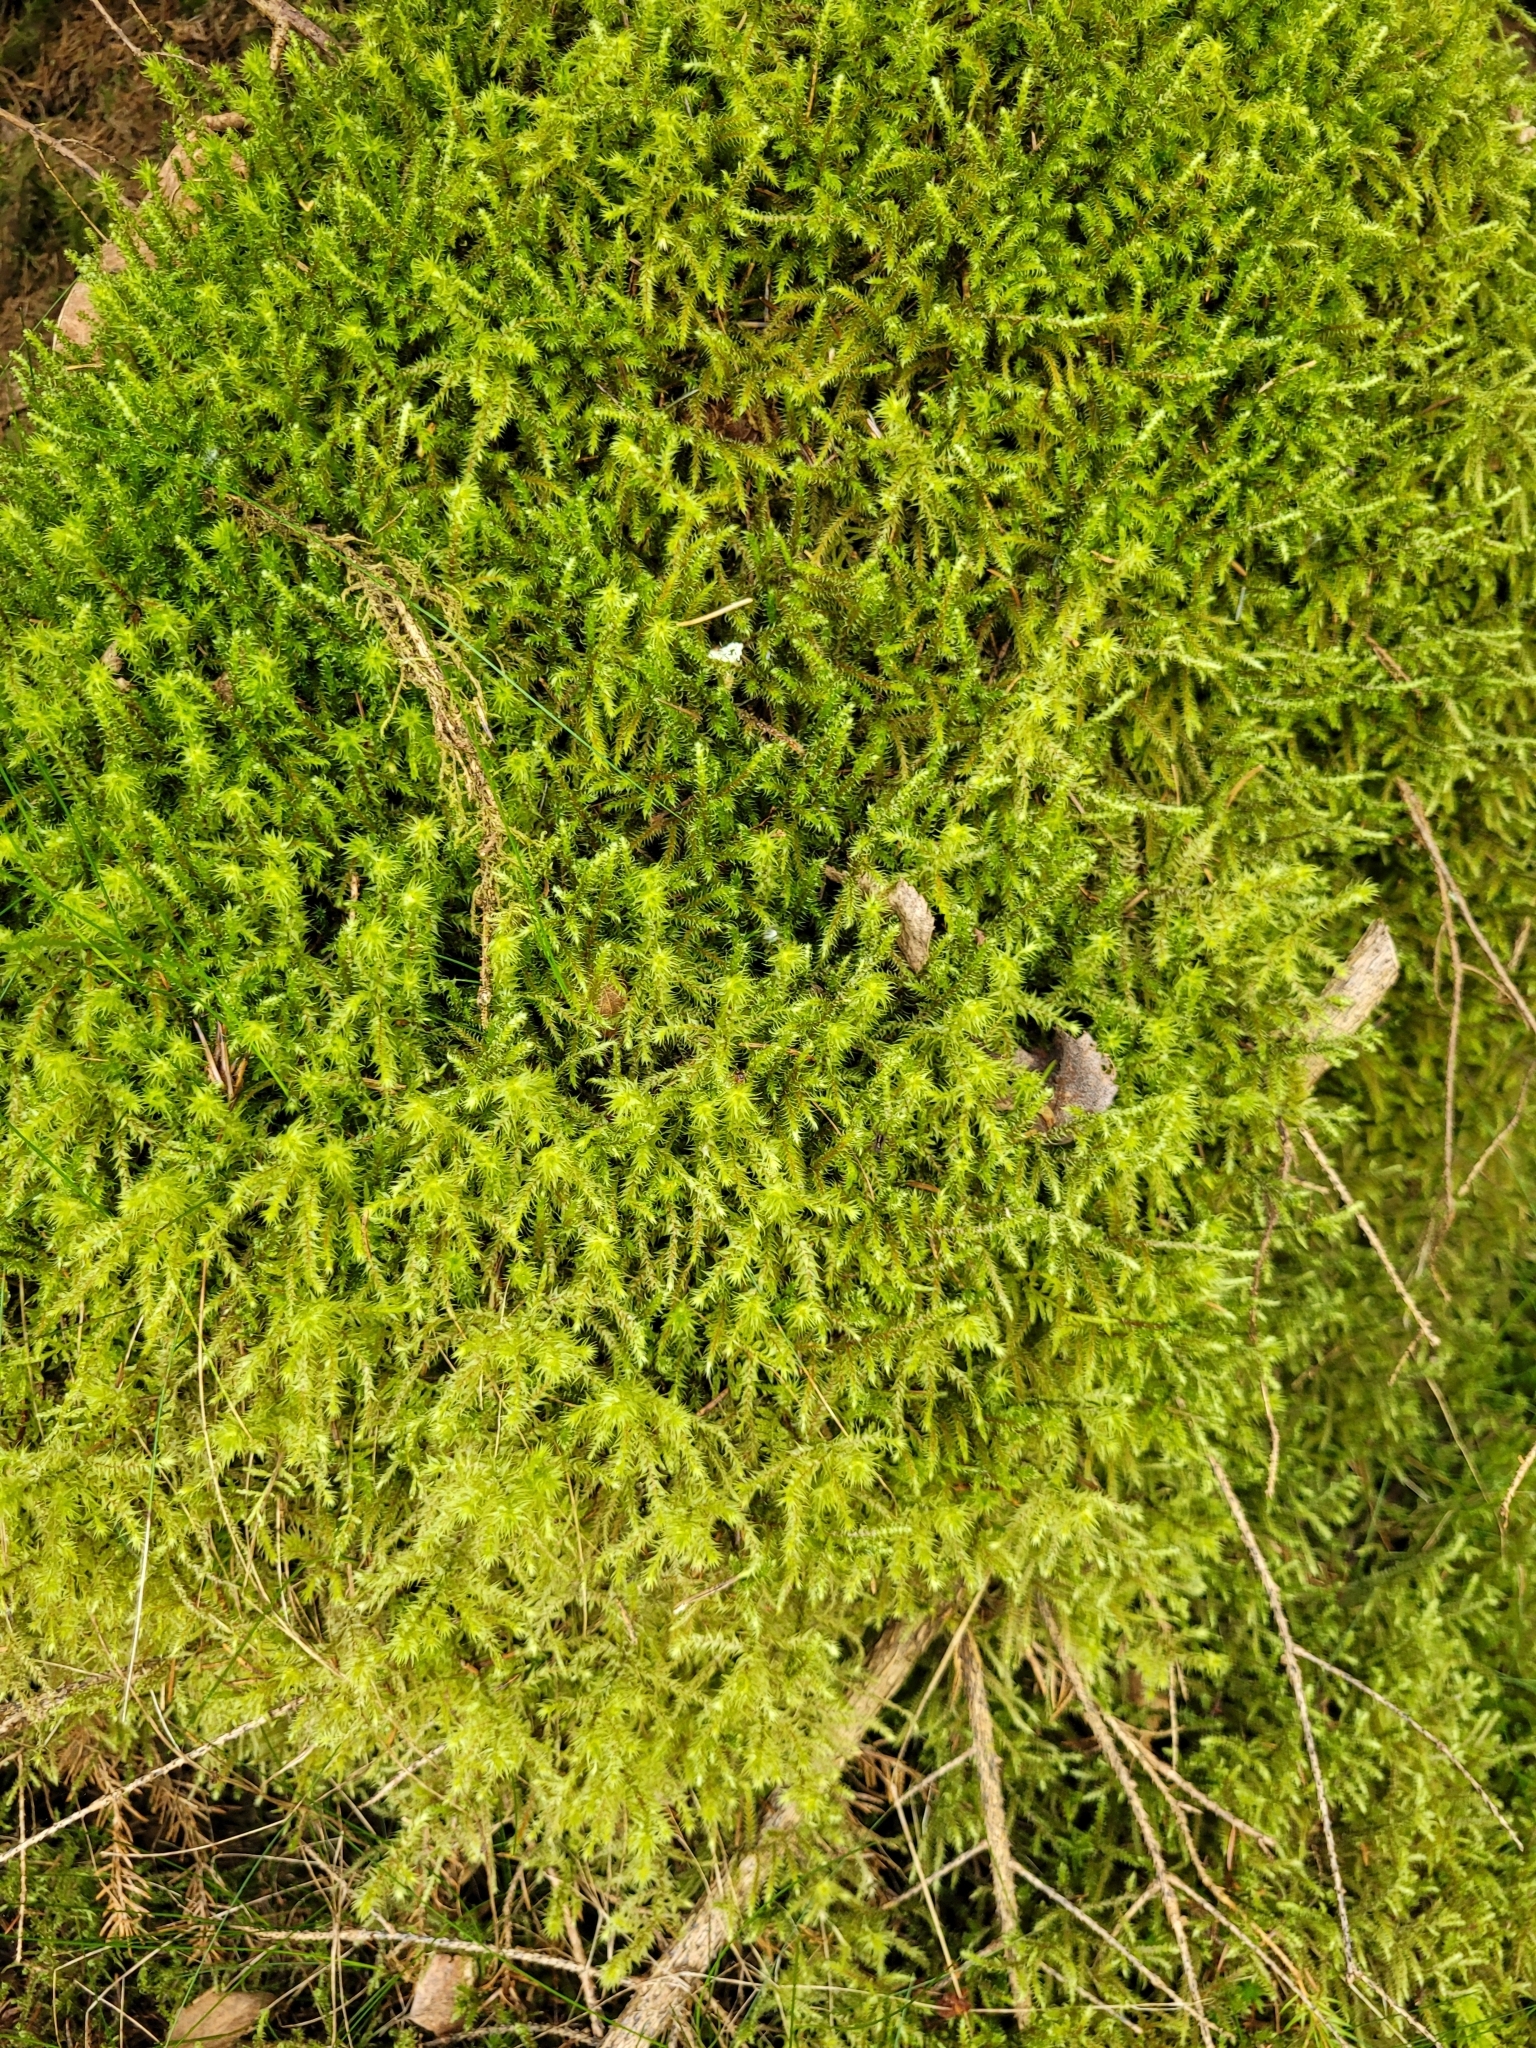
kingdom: Plantae
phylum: Bryophyta
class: Bryopsida
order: Hypnales
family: Hylocomiaceae
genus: Rhytidiadelphus
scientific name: Rhytidiadelphus loreus
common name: Lanky moss
